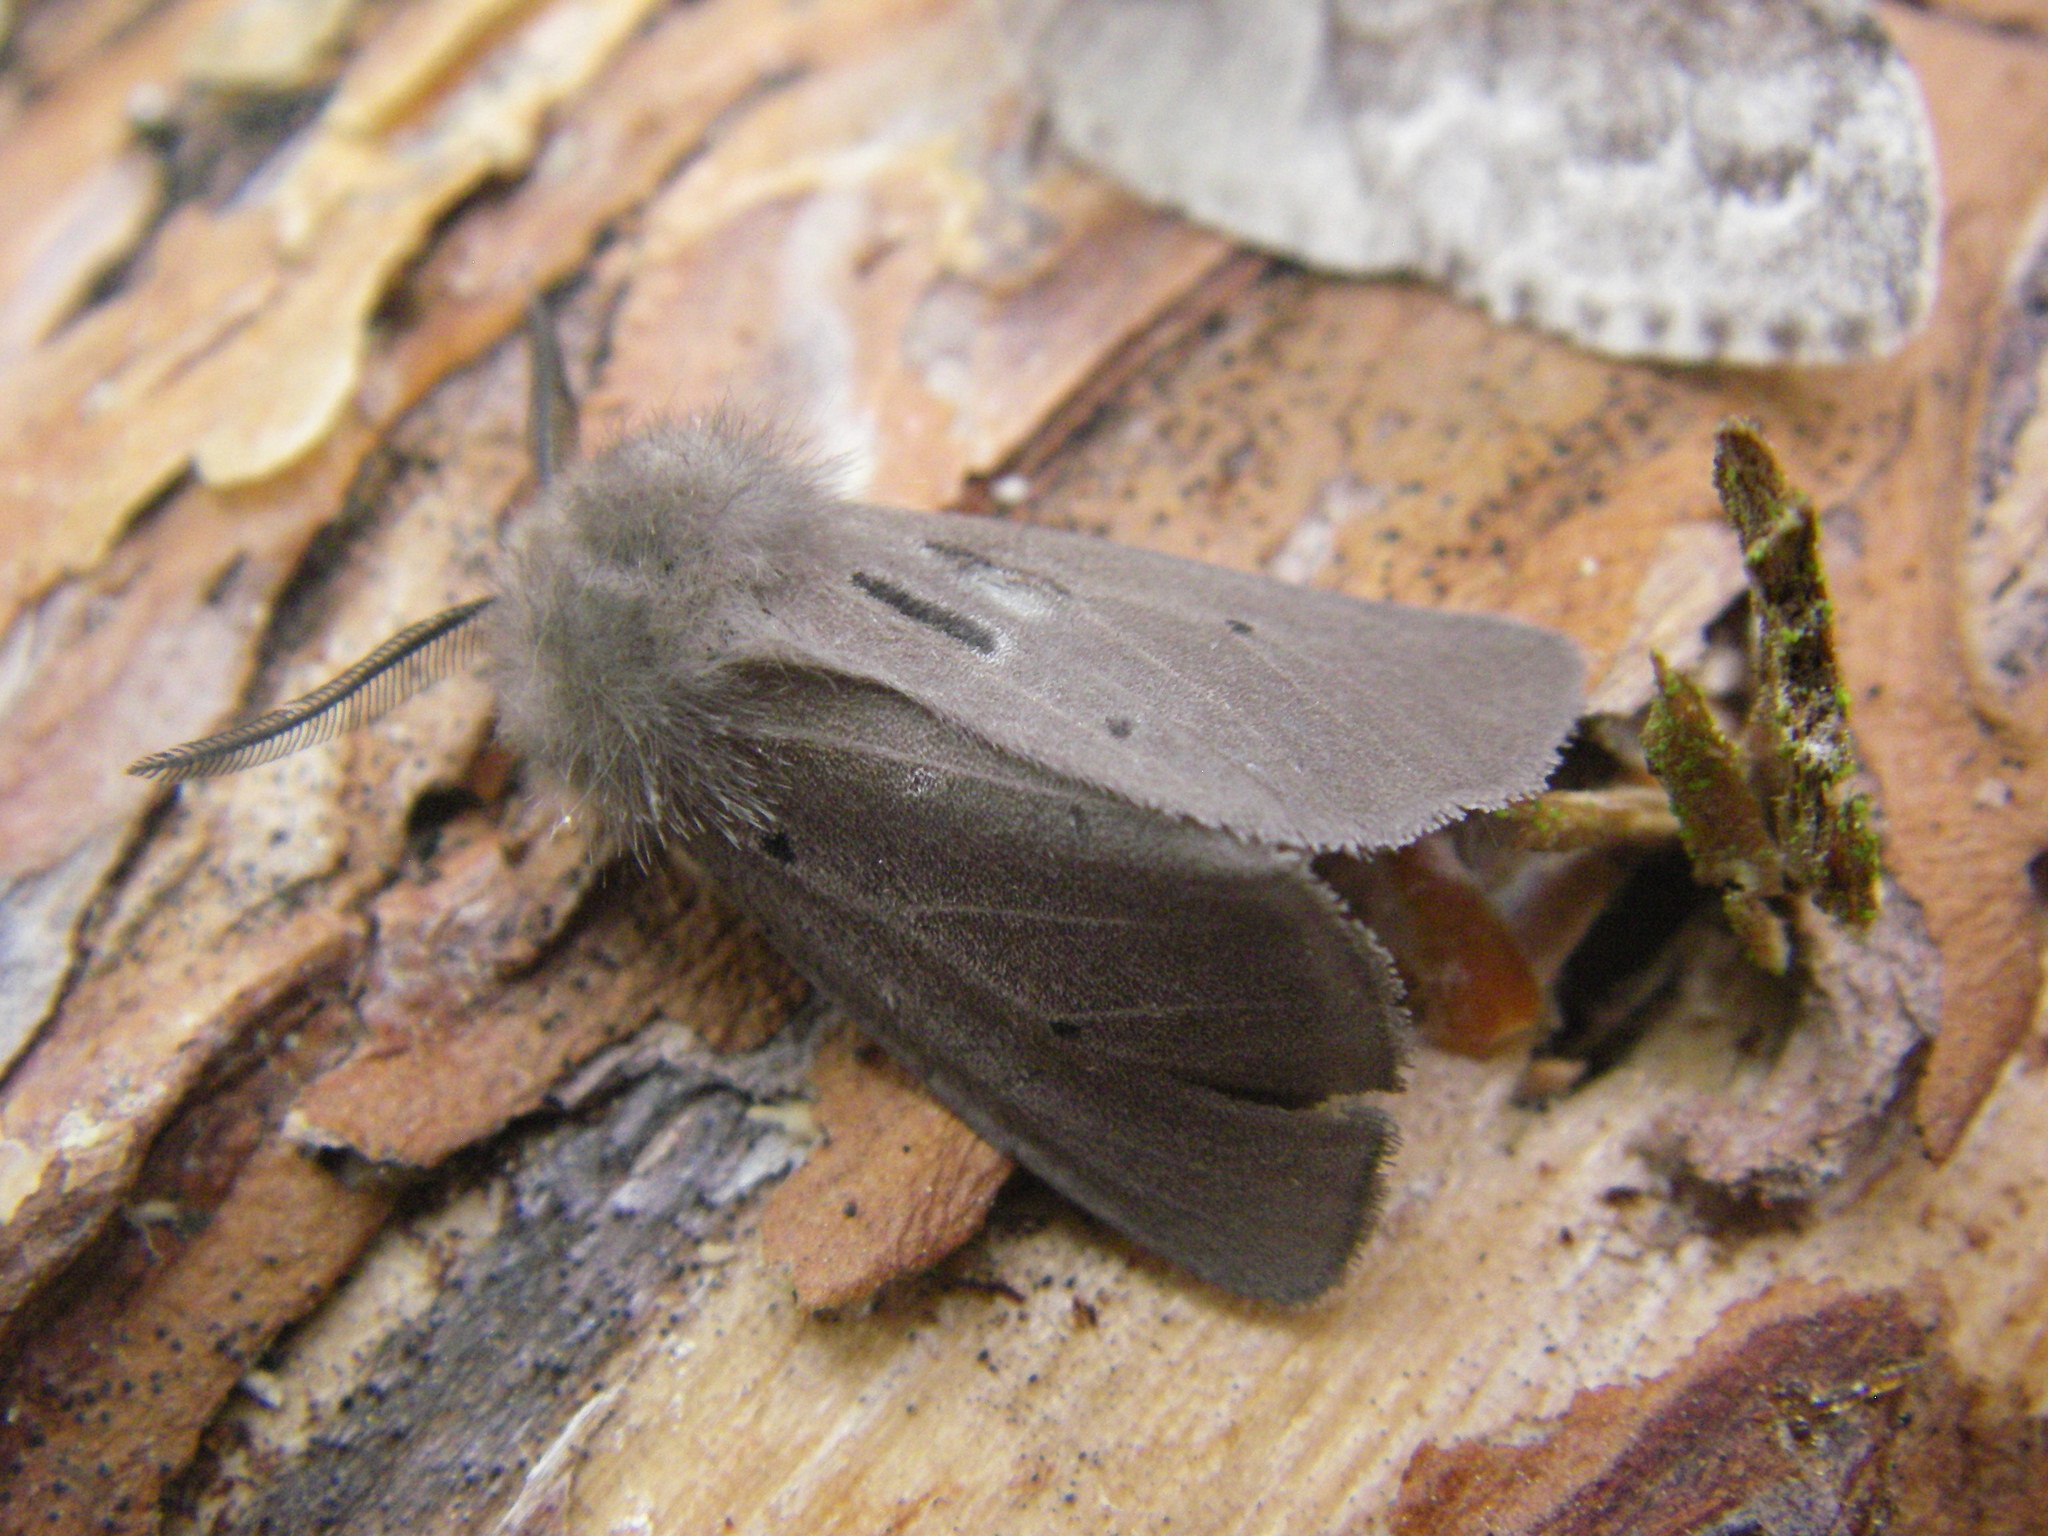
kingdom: Animalia
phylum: Arthropoda
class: Insecta
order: Lepidoptera
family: Erebidae
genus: Diaphora
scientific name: Diaphora mendica
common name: Muslin moth
